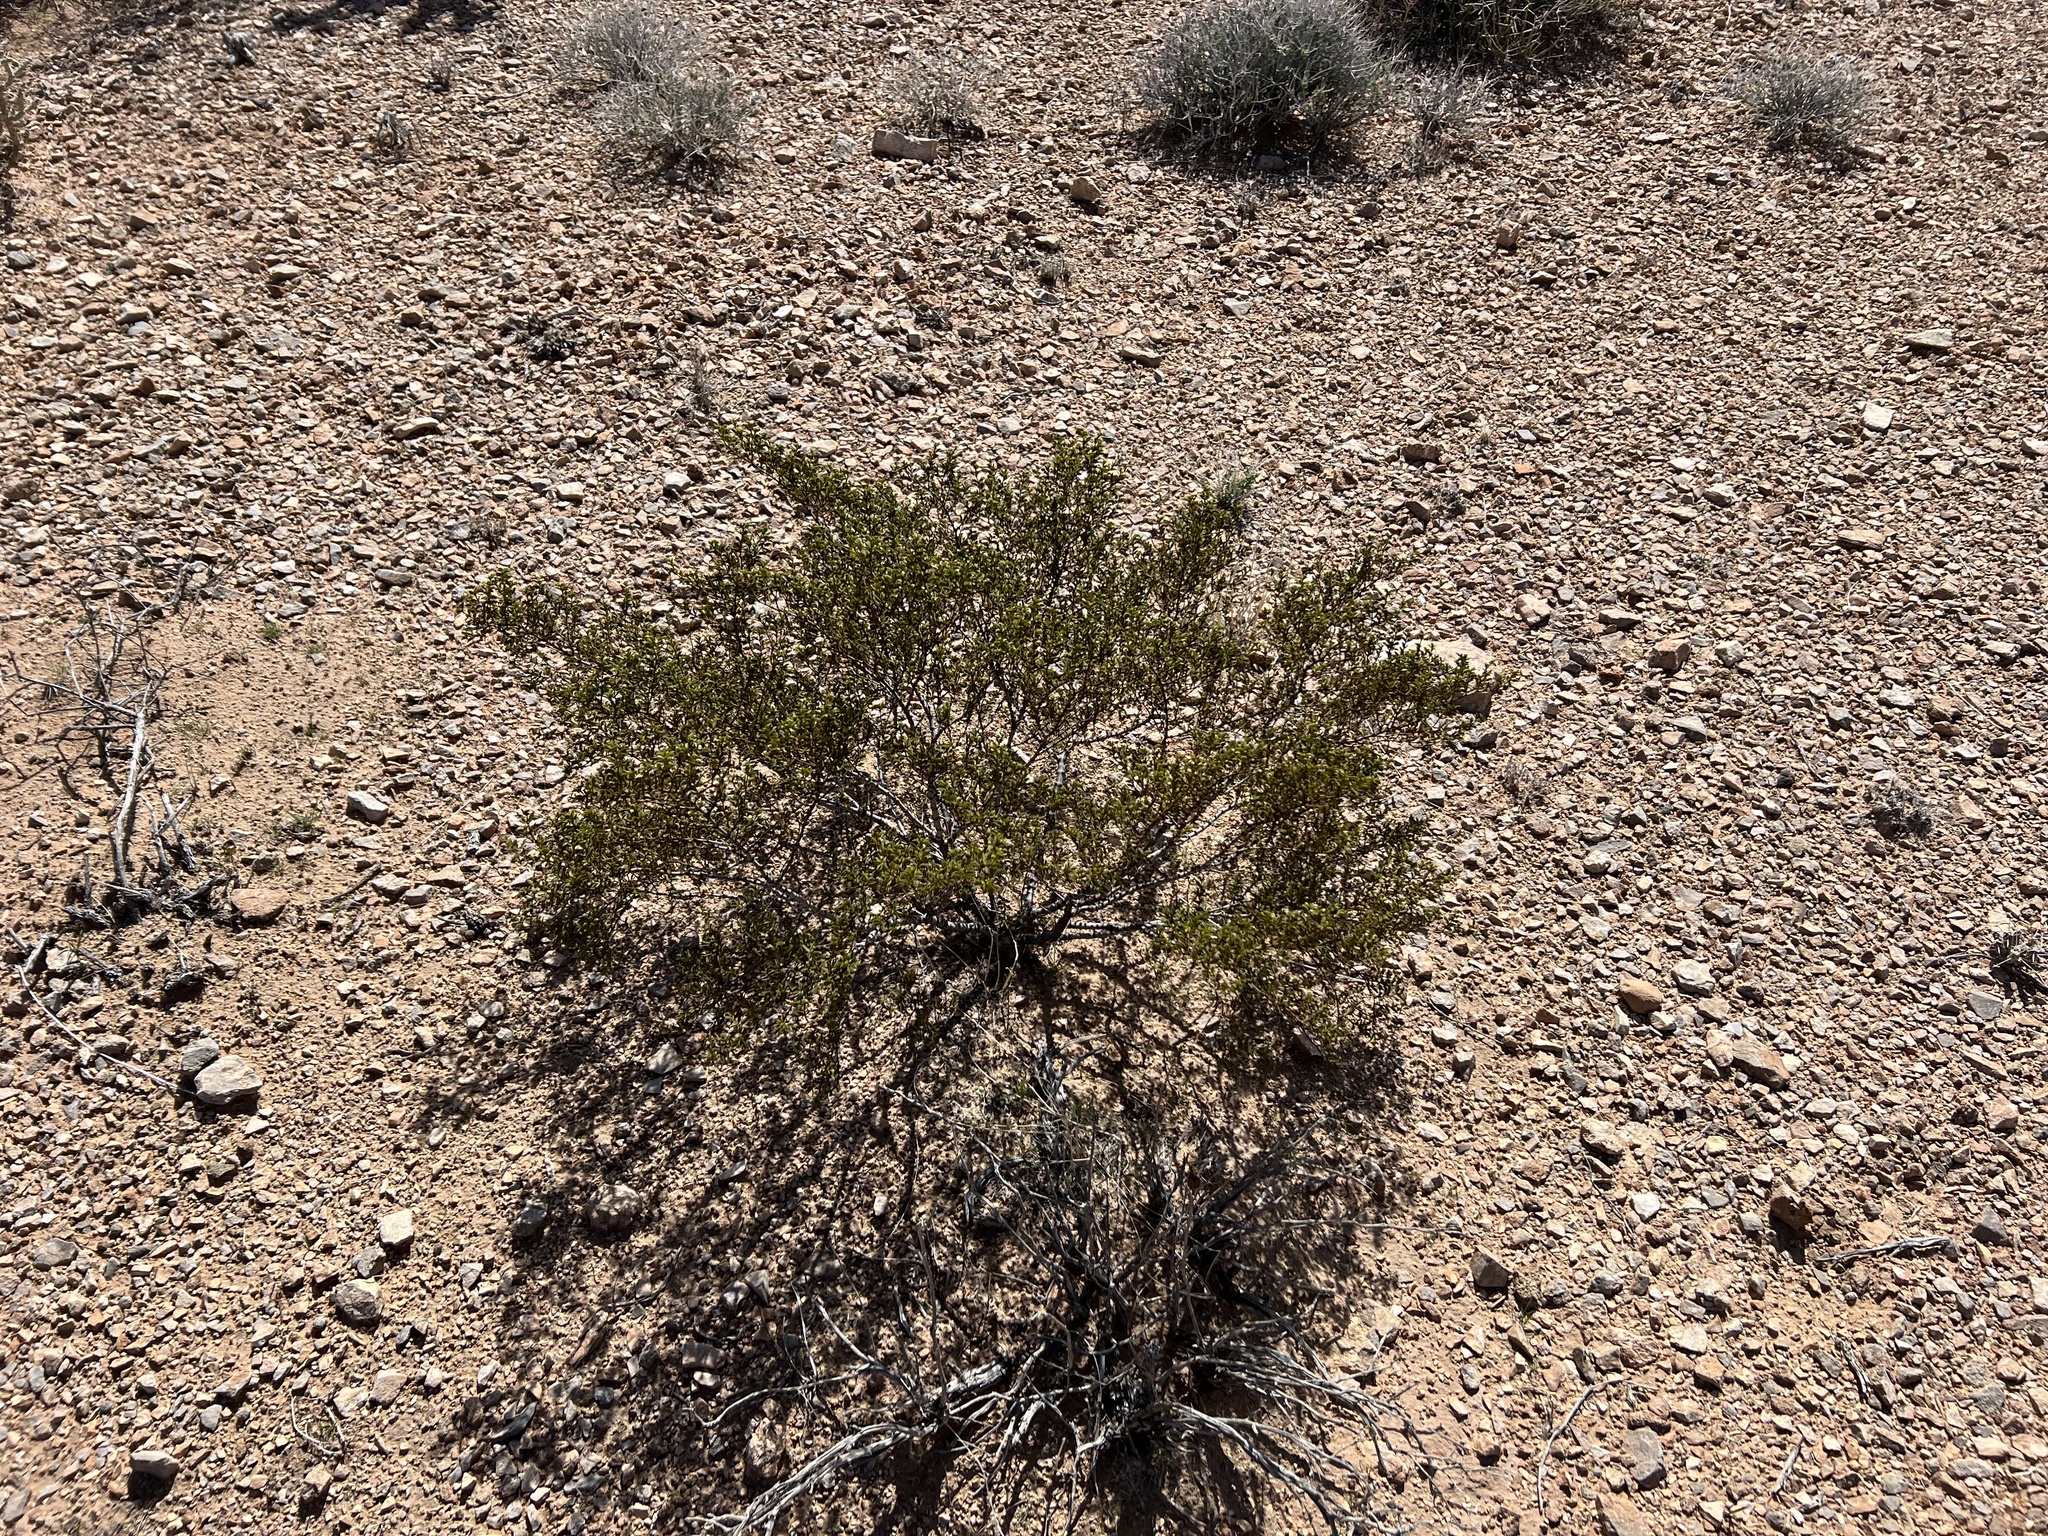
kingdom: Plantae
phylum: Tracheophyta
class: Magnoliopsida
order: Zygophyllales
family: Zygophyllaceae
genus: Larrea
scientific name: Larrea tridentata
